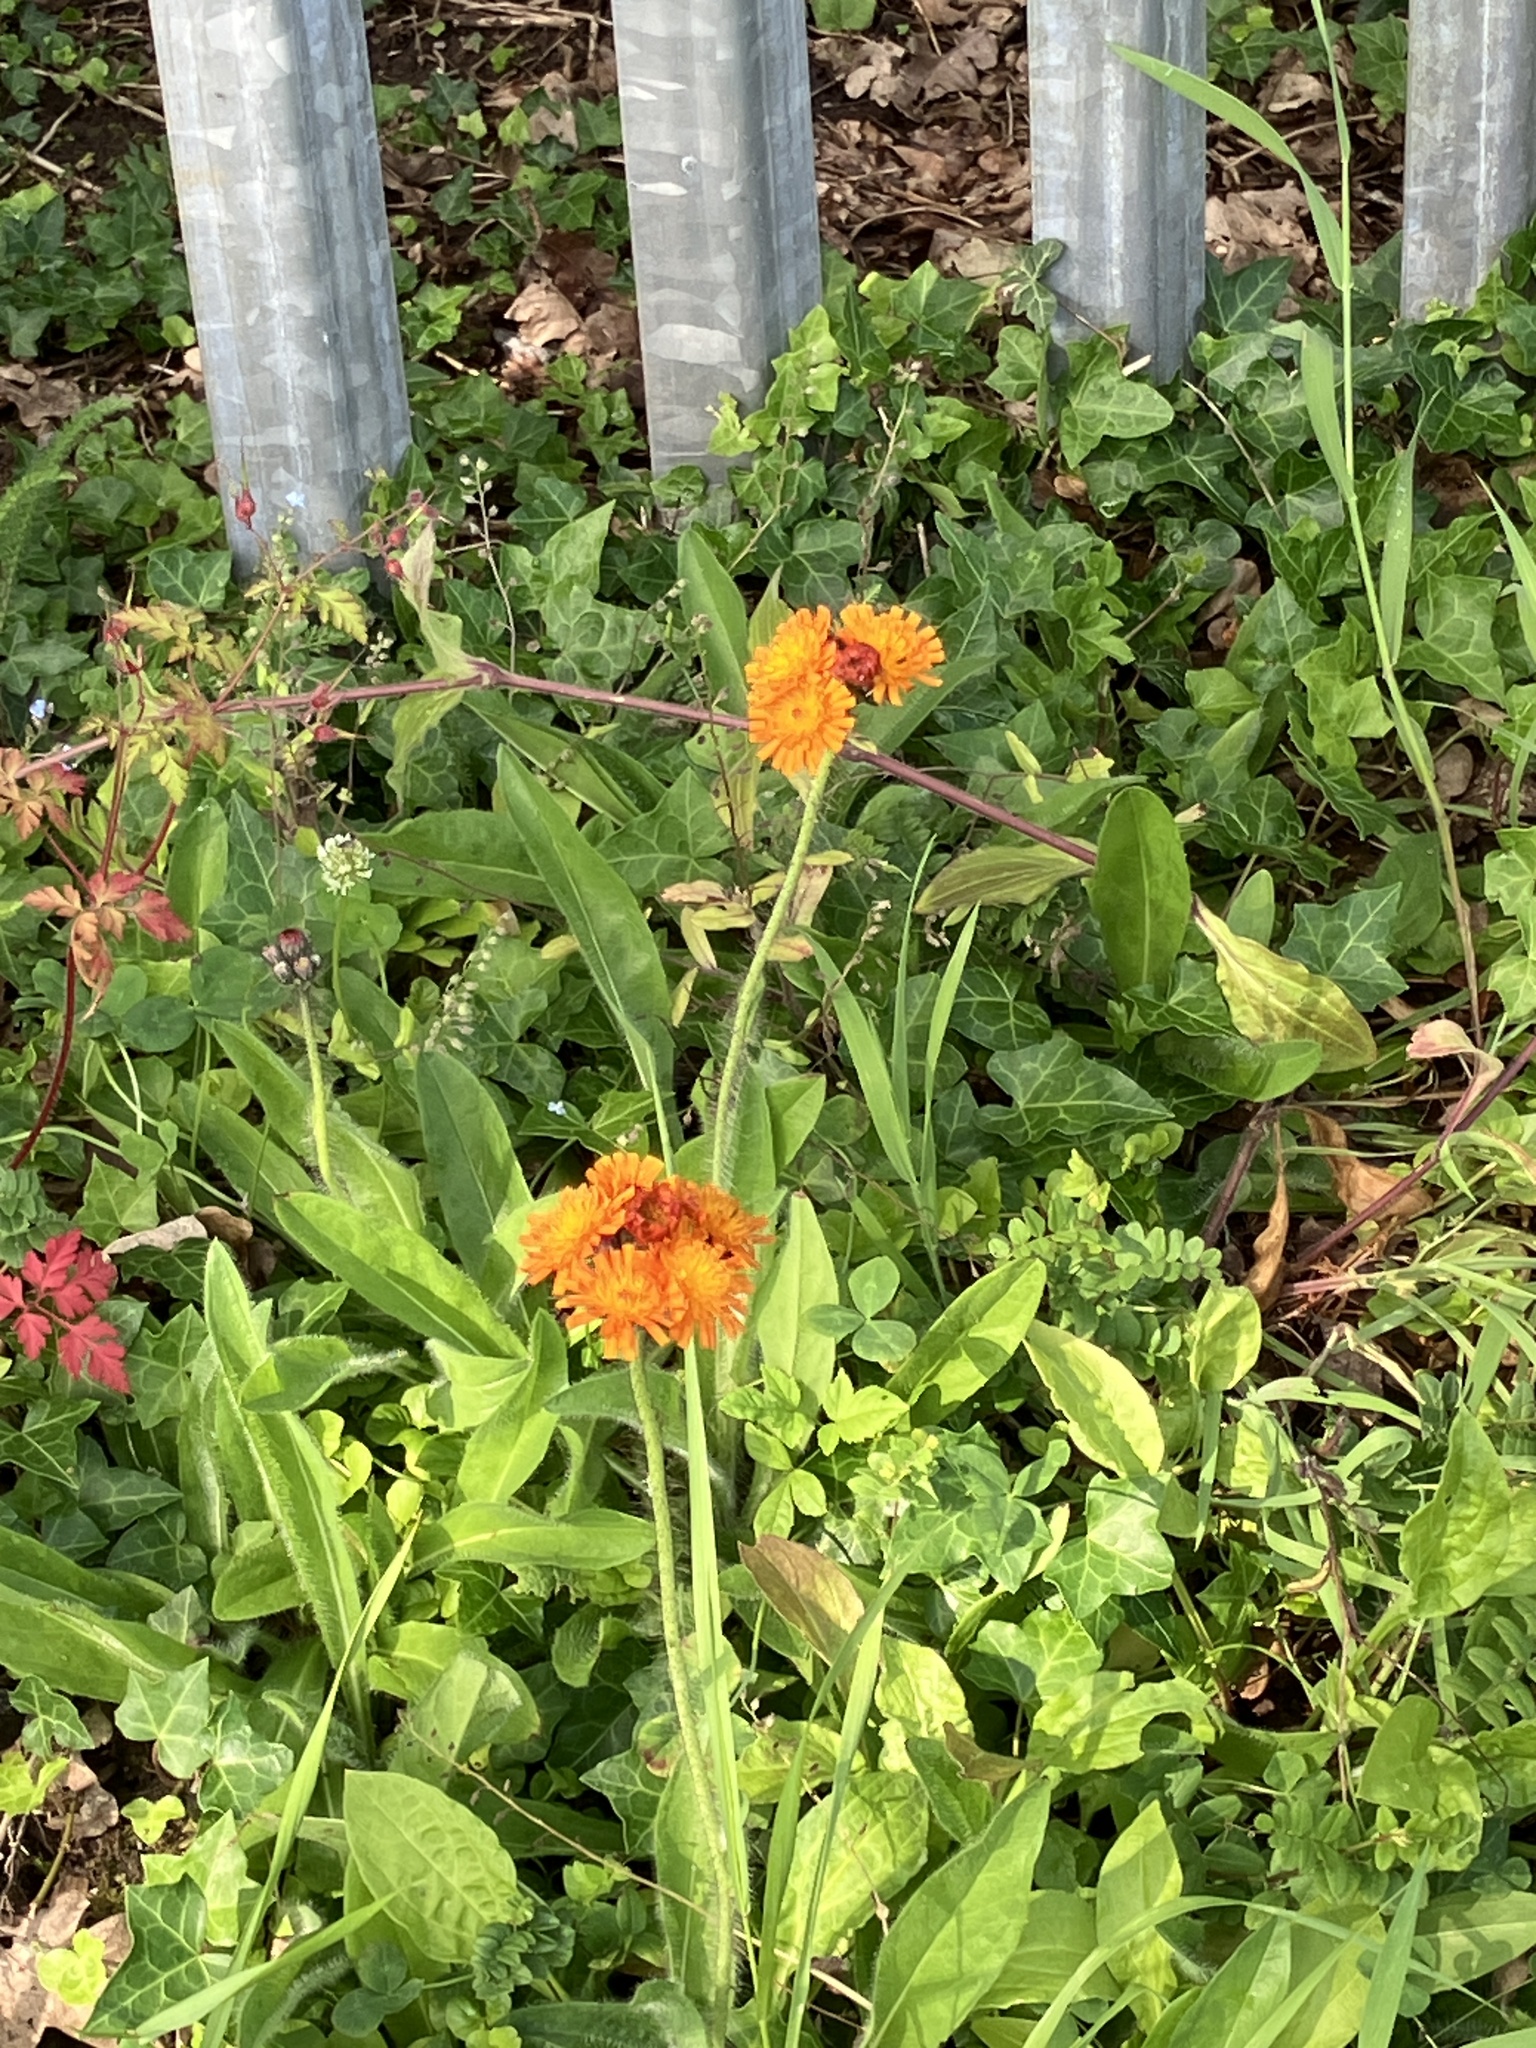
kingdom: Plantae
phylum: Tracheophyta
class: Magnoliopsida
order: Asterales
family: Asteraceae
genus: Pilosella
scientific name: Pilosella aurantiaca
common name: Fox-and-cubs
